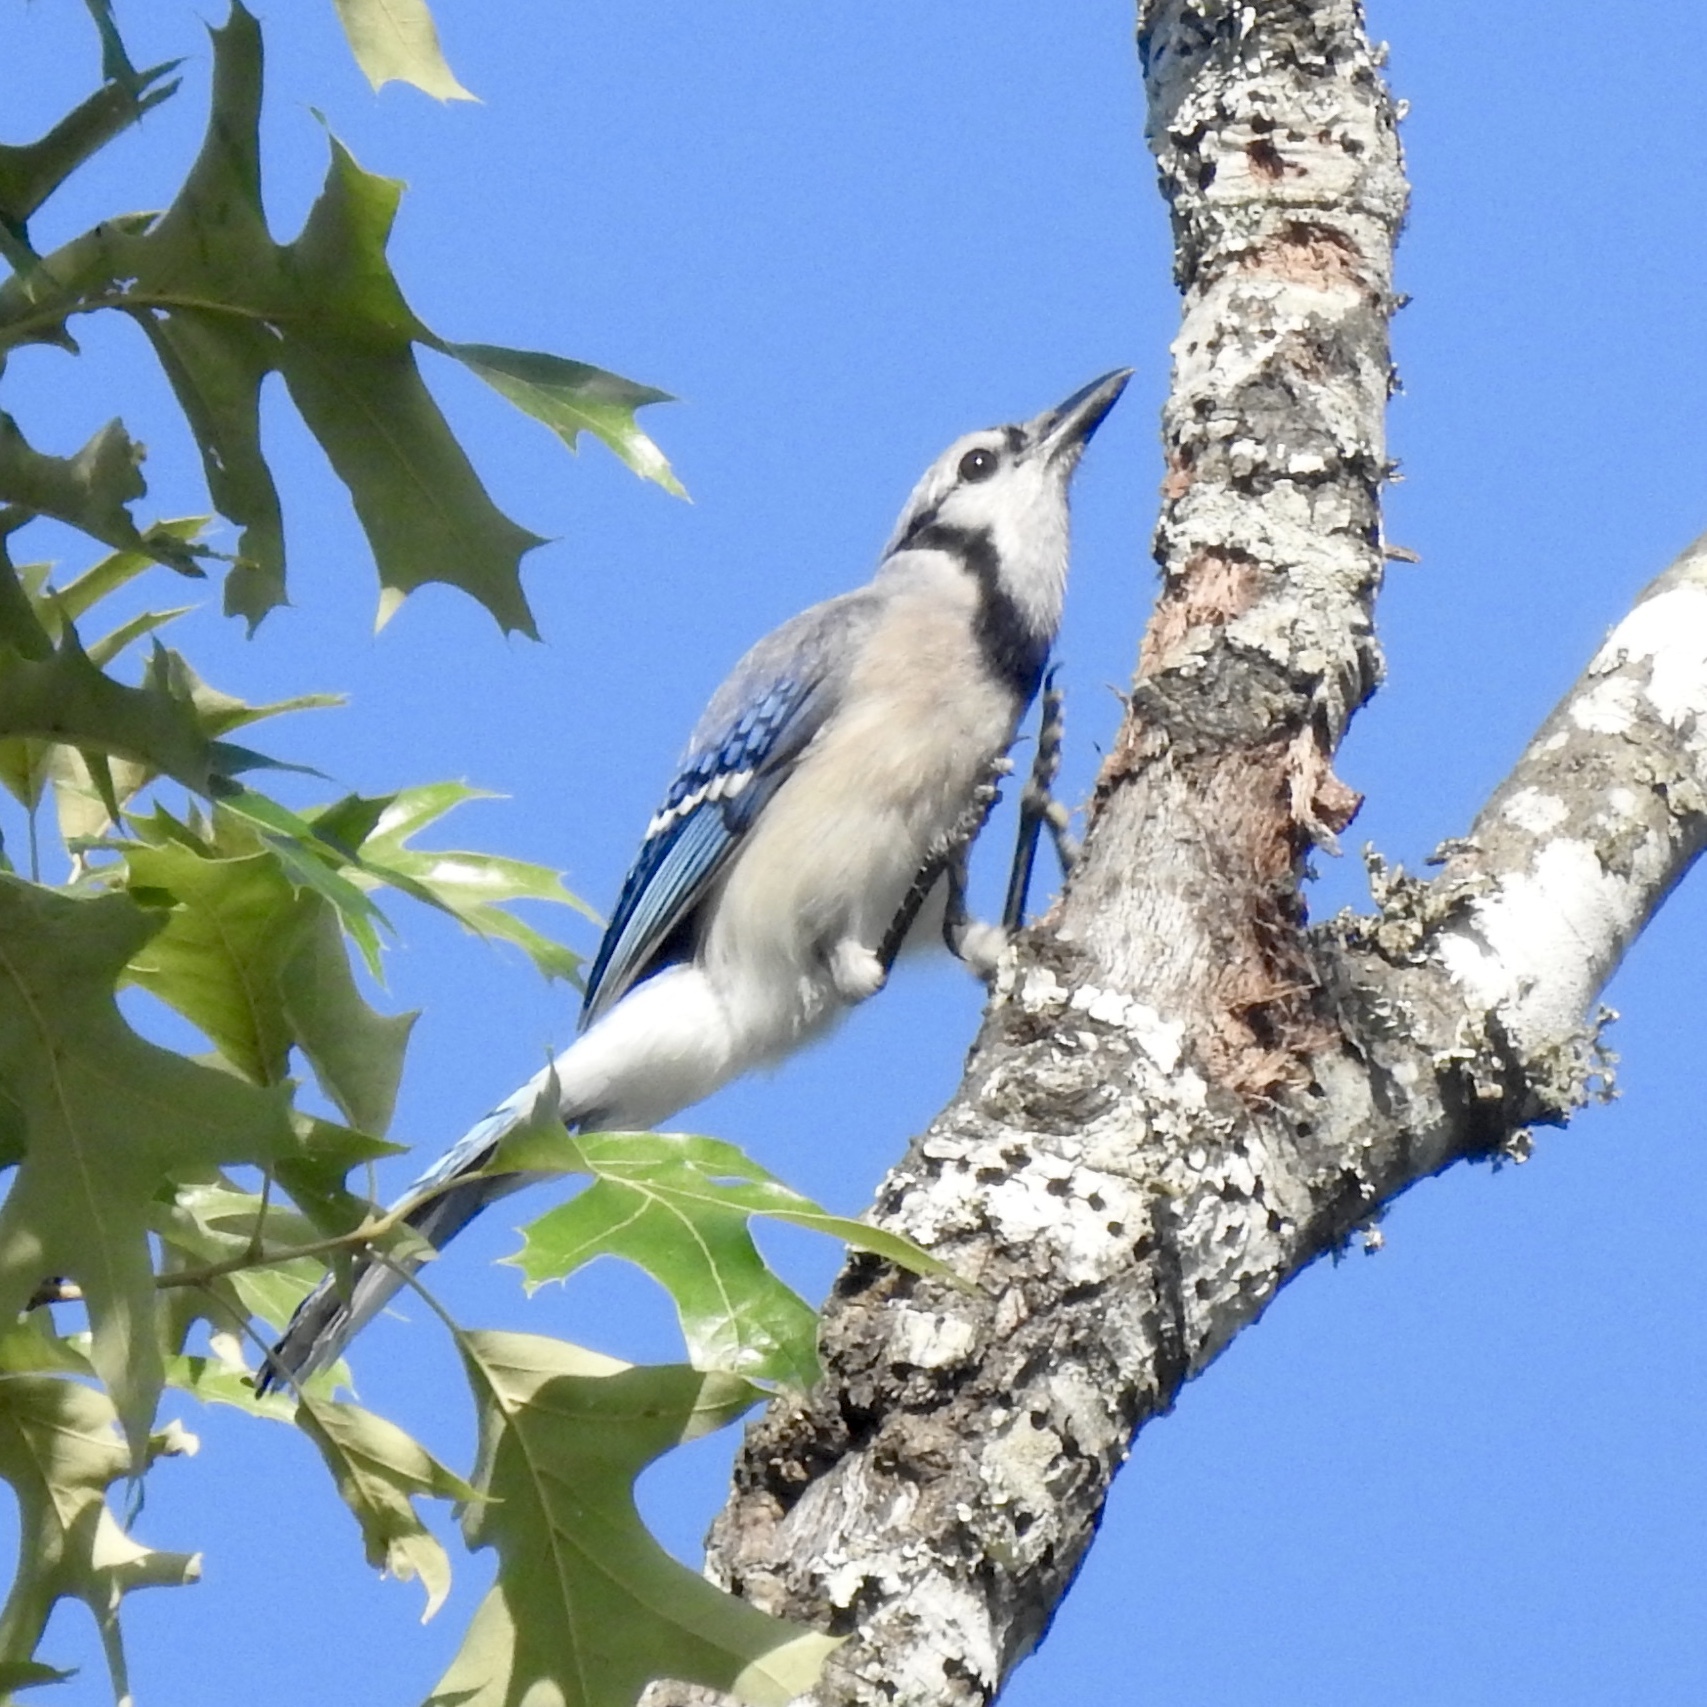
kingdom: Animalia
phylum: Chordata
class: Aves
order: Passeriformes
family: Corvidae
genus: Cyanocitta
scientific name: Cyanocitta cristata
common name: Blue jay
